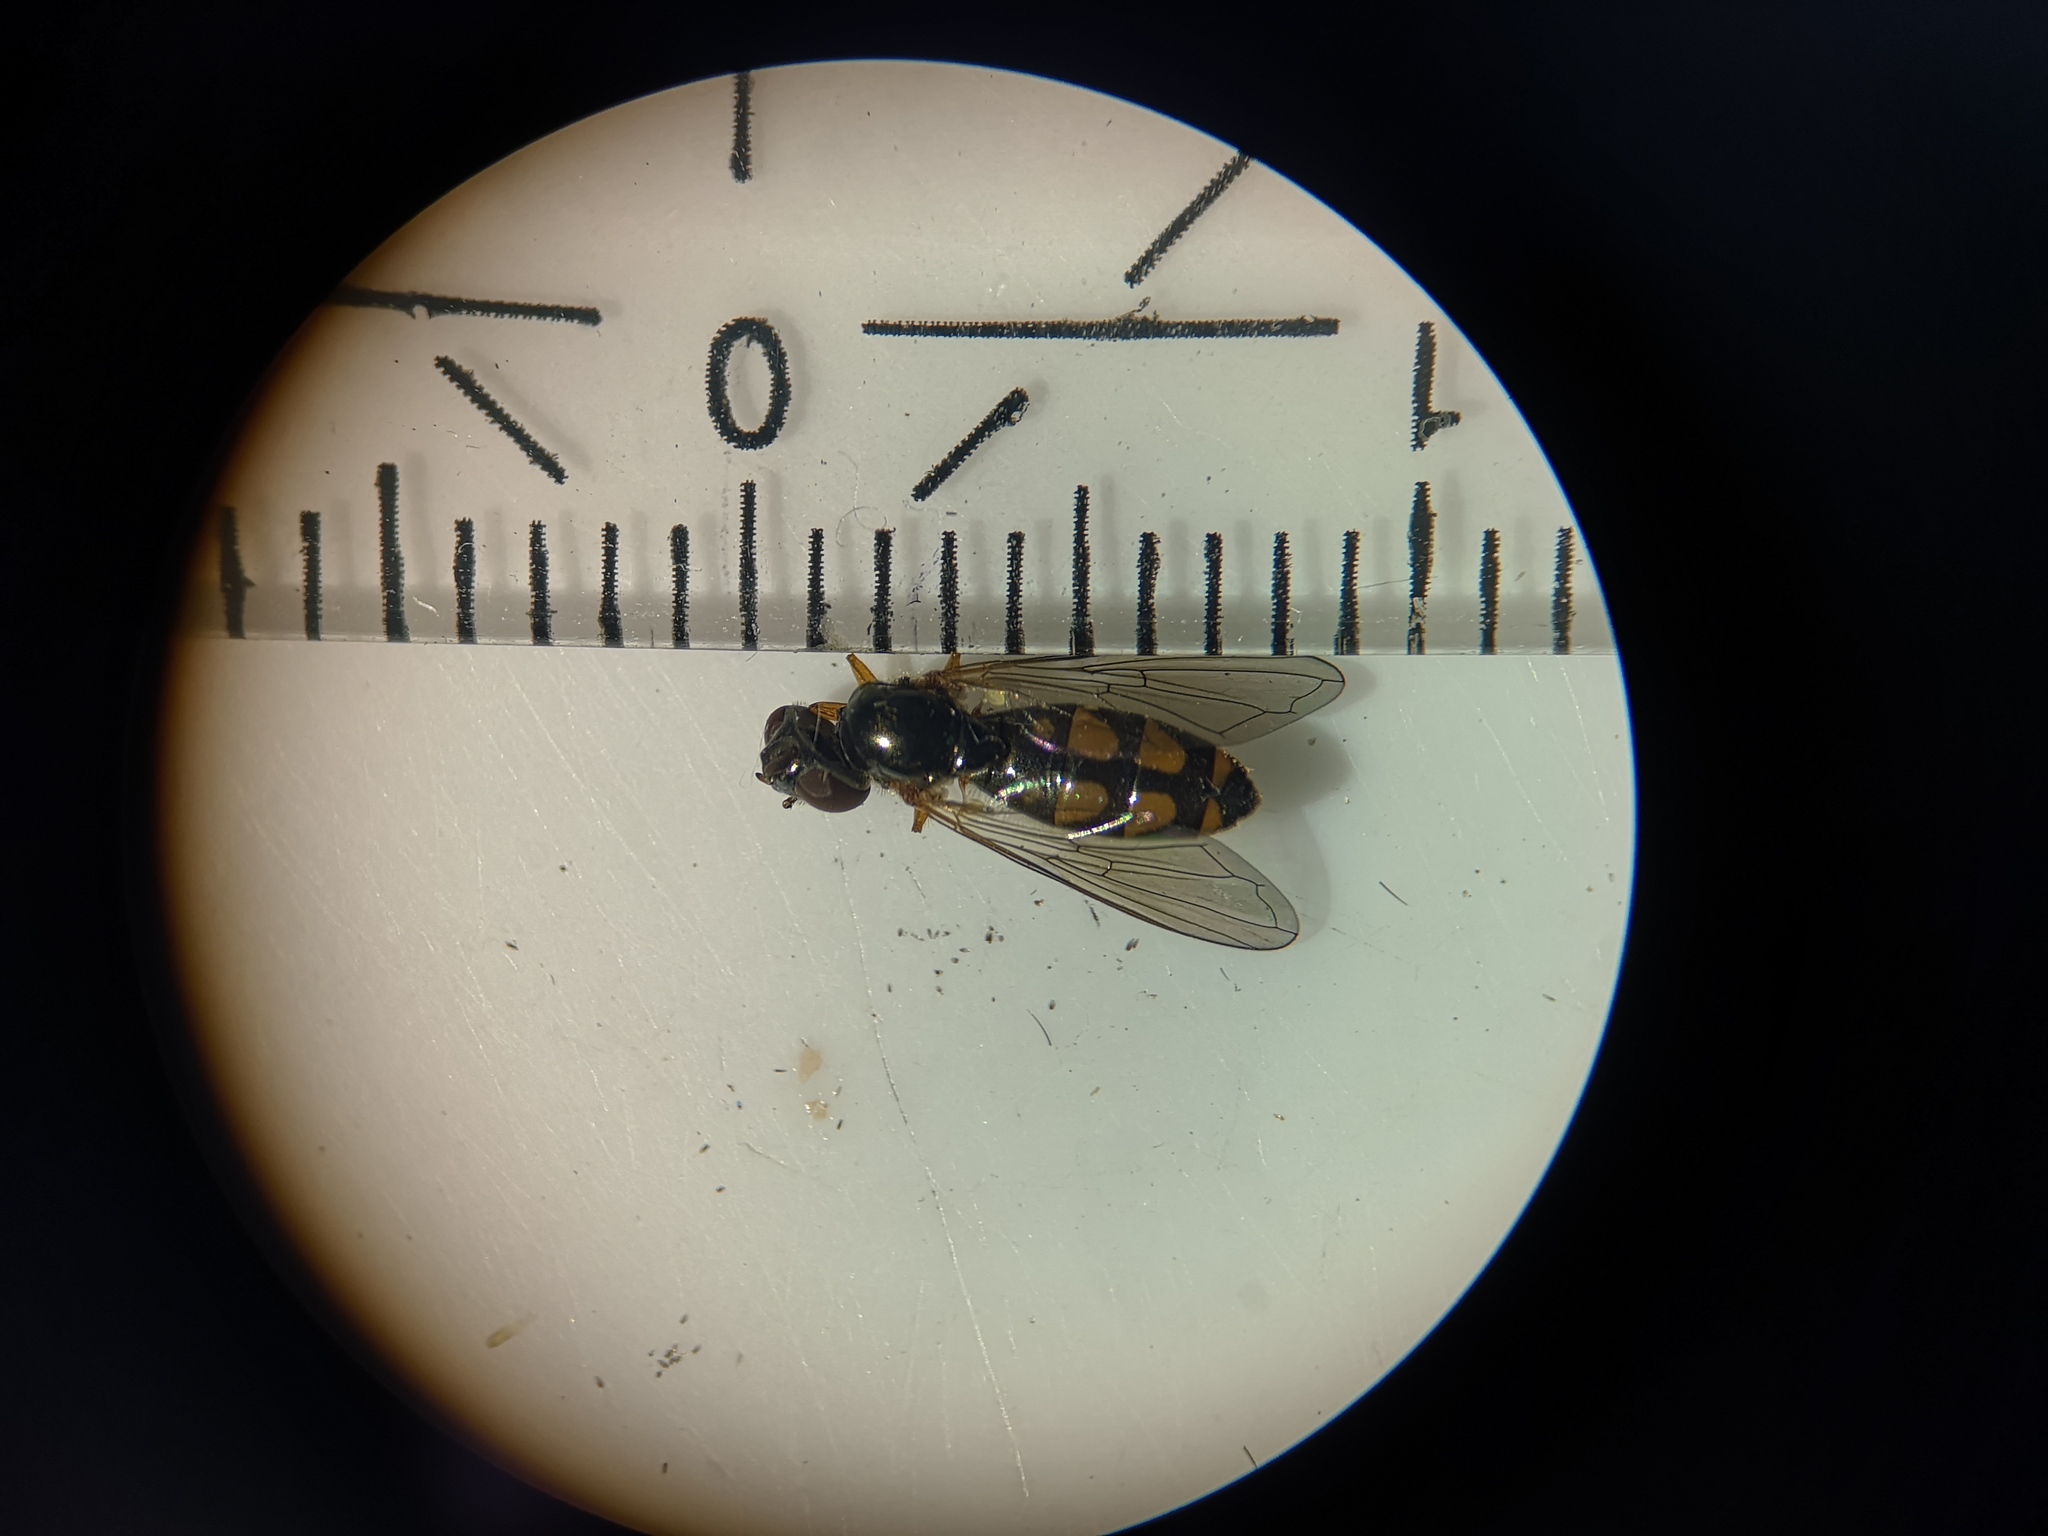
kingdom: Animalia
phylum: Arthropoda
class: Insecta
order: Diptera
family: Syrphidae
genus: Melanostoma
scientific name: Melanostoma mellina
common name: Hover fly
